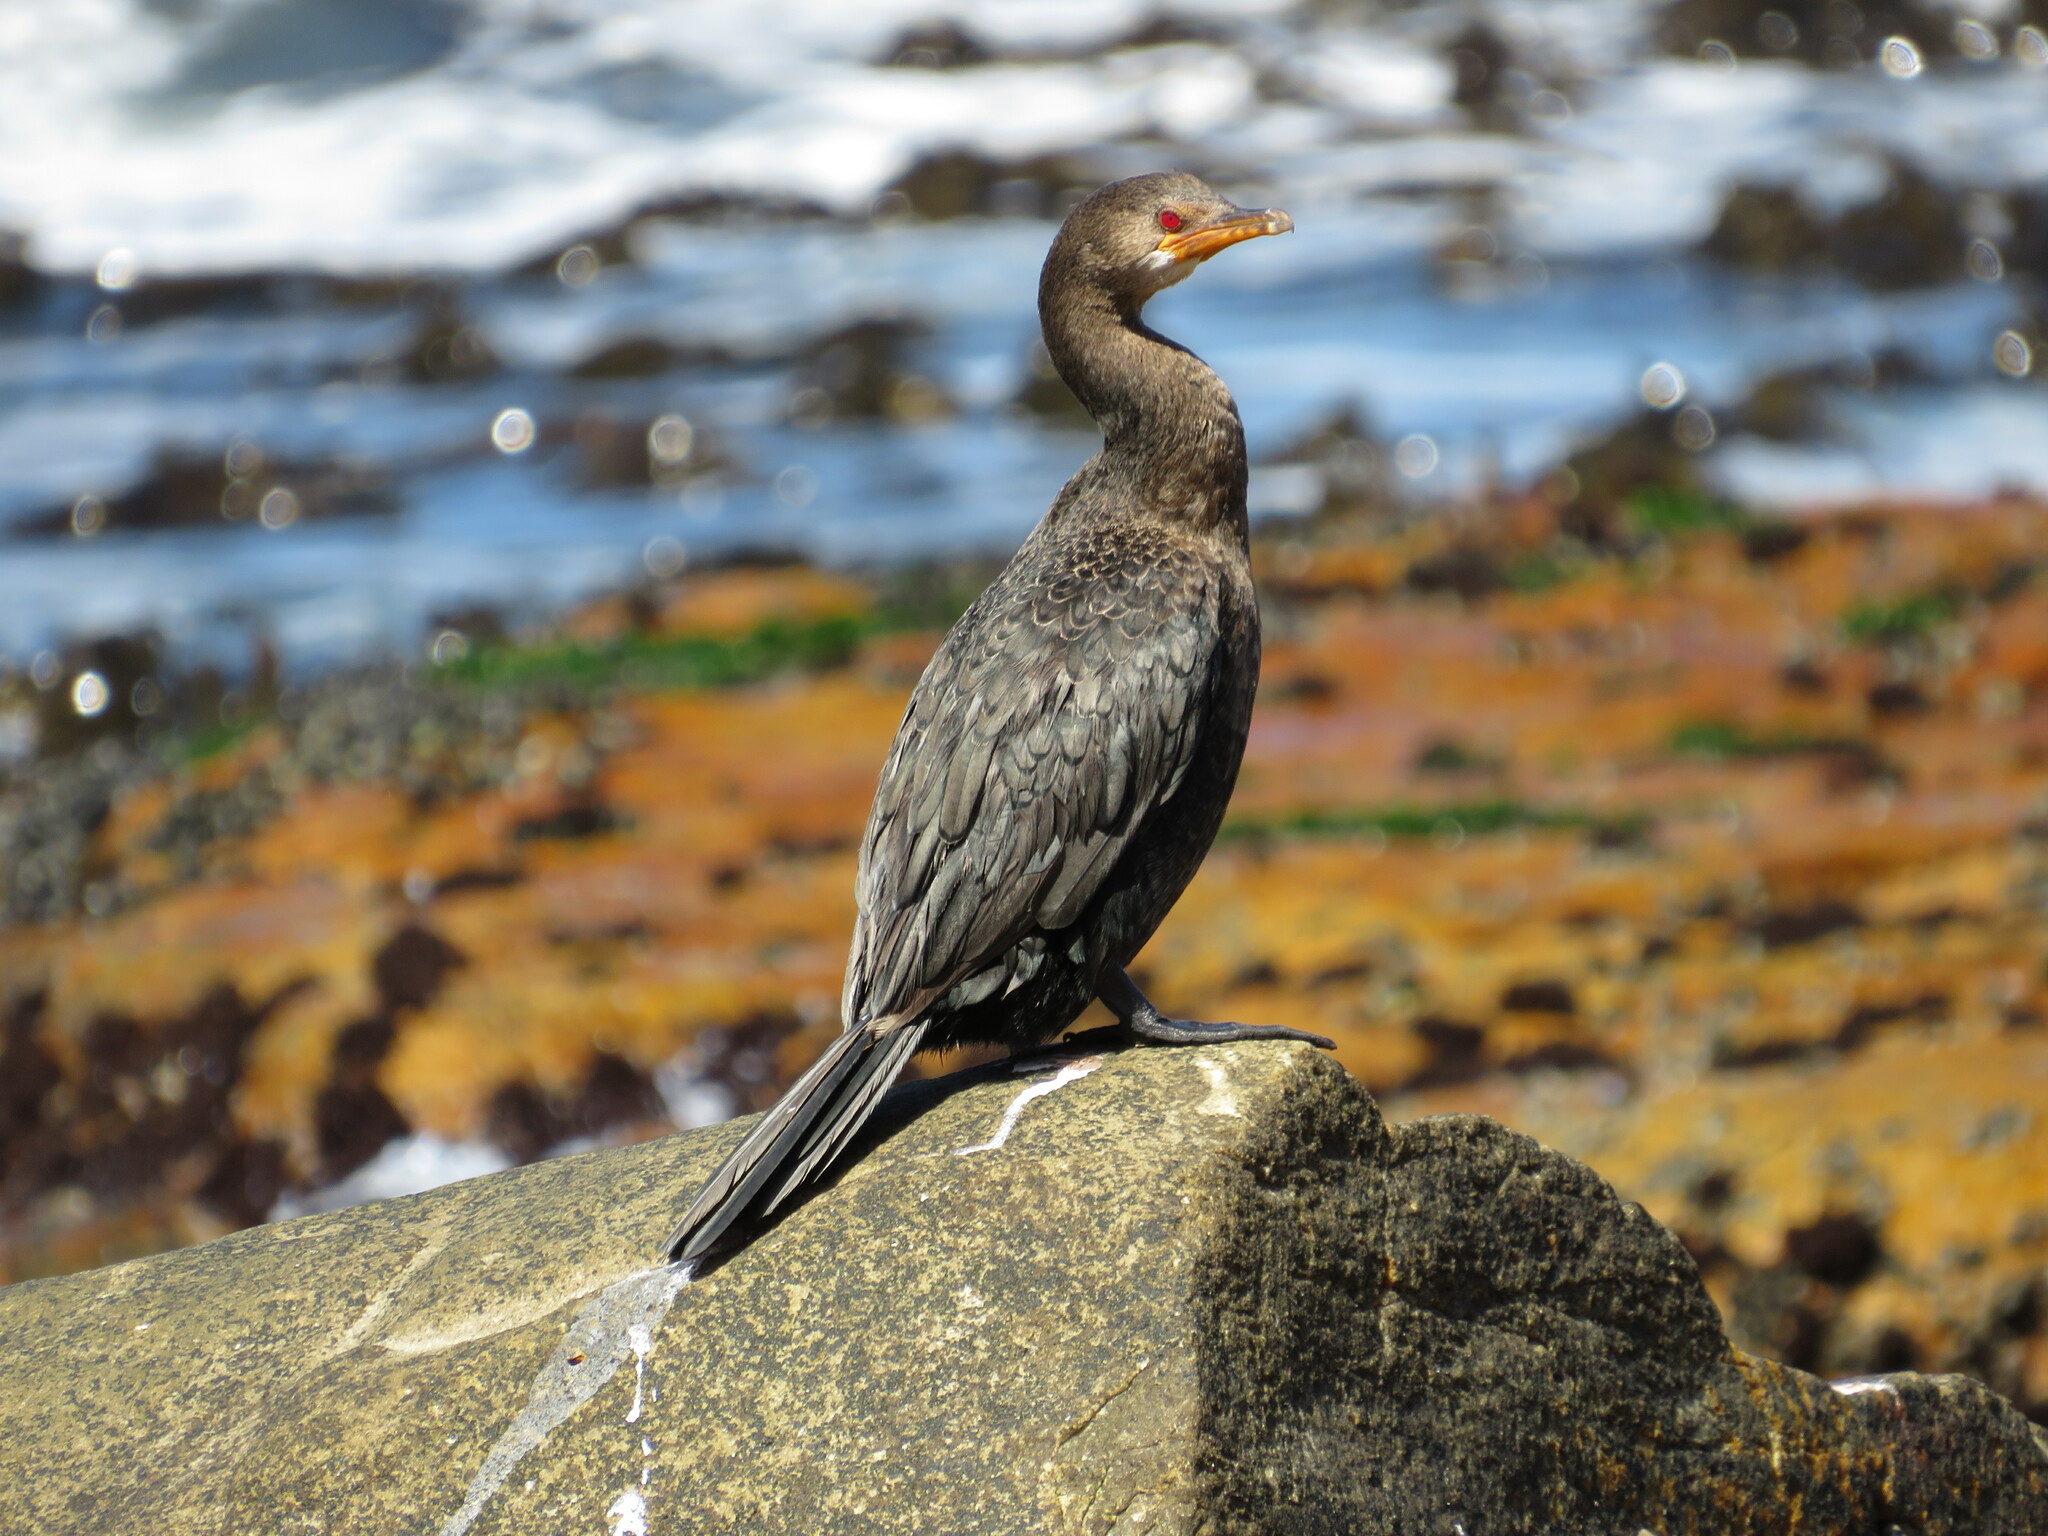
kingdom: Animalia
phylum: Chordata
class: Aves
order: Suliformes
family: Phalacrocoracidae
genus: Microcarbo
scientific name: Microcarbo coronatus
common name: Crowned cormorant
